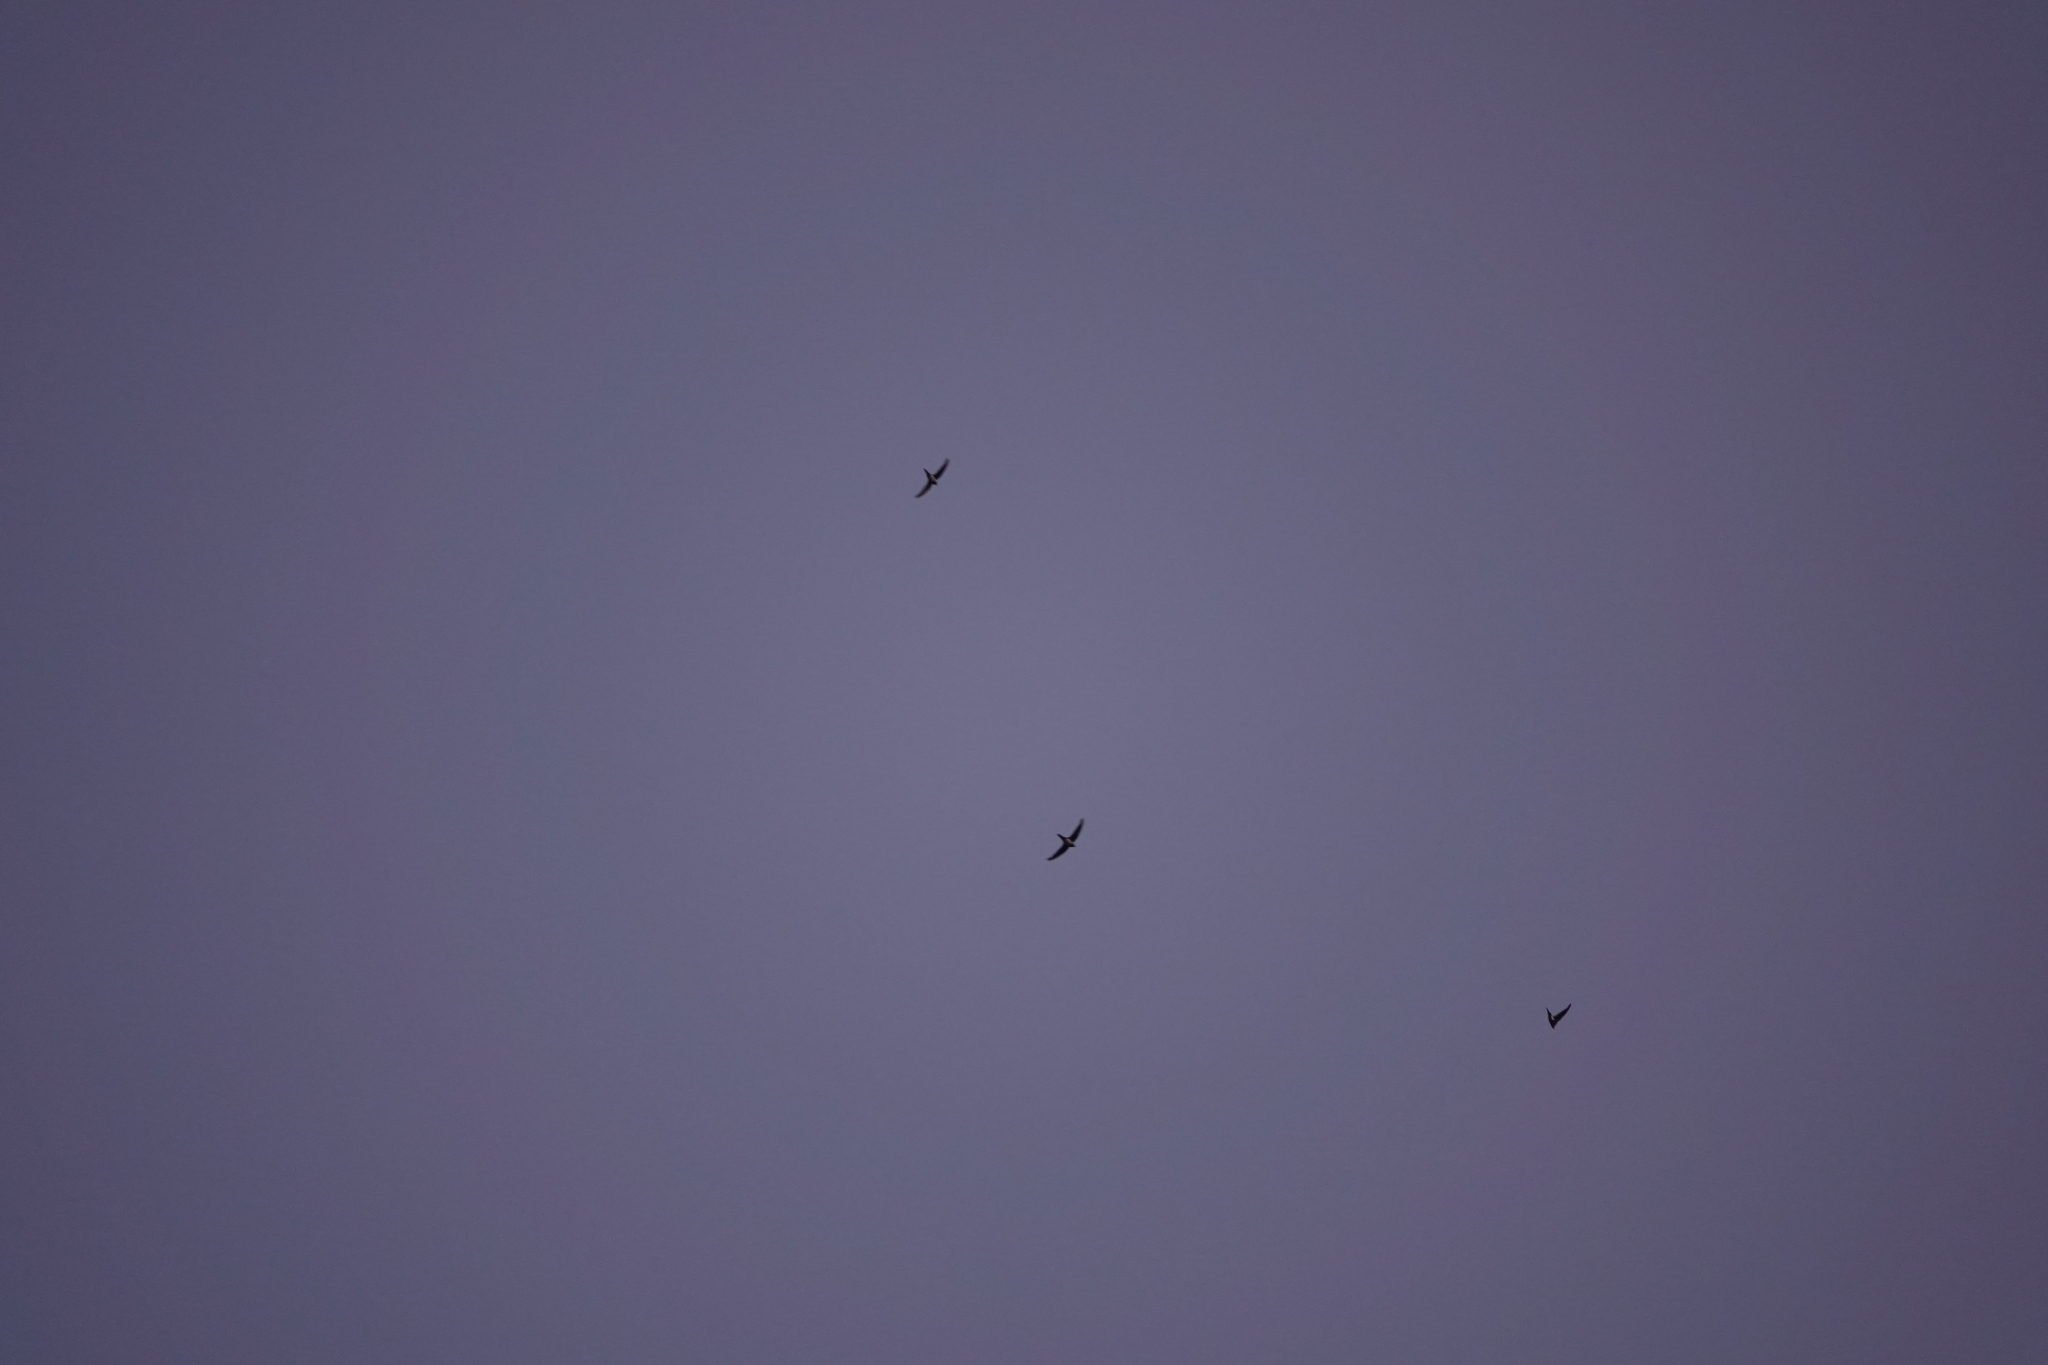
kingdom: Animalia
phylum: Chordata
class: Aves
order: Apodiformes
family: Apodidae
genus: Tachymarptis
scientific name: Tachymarptis melba
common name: Alpine swift
